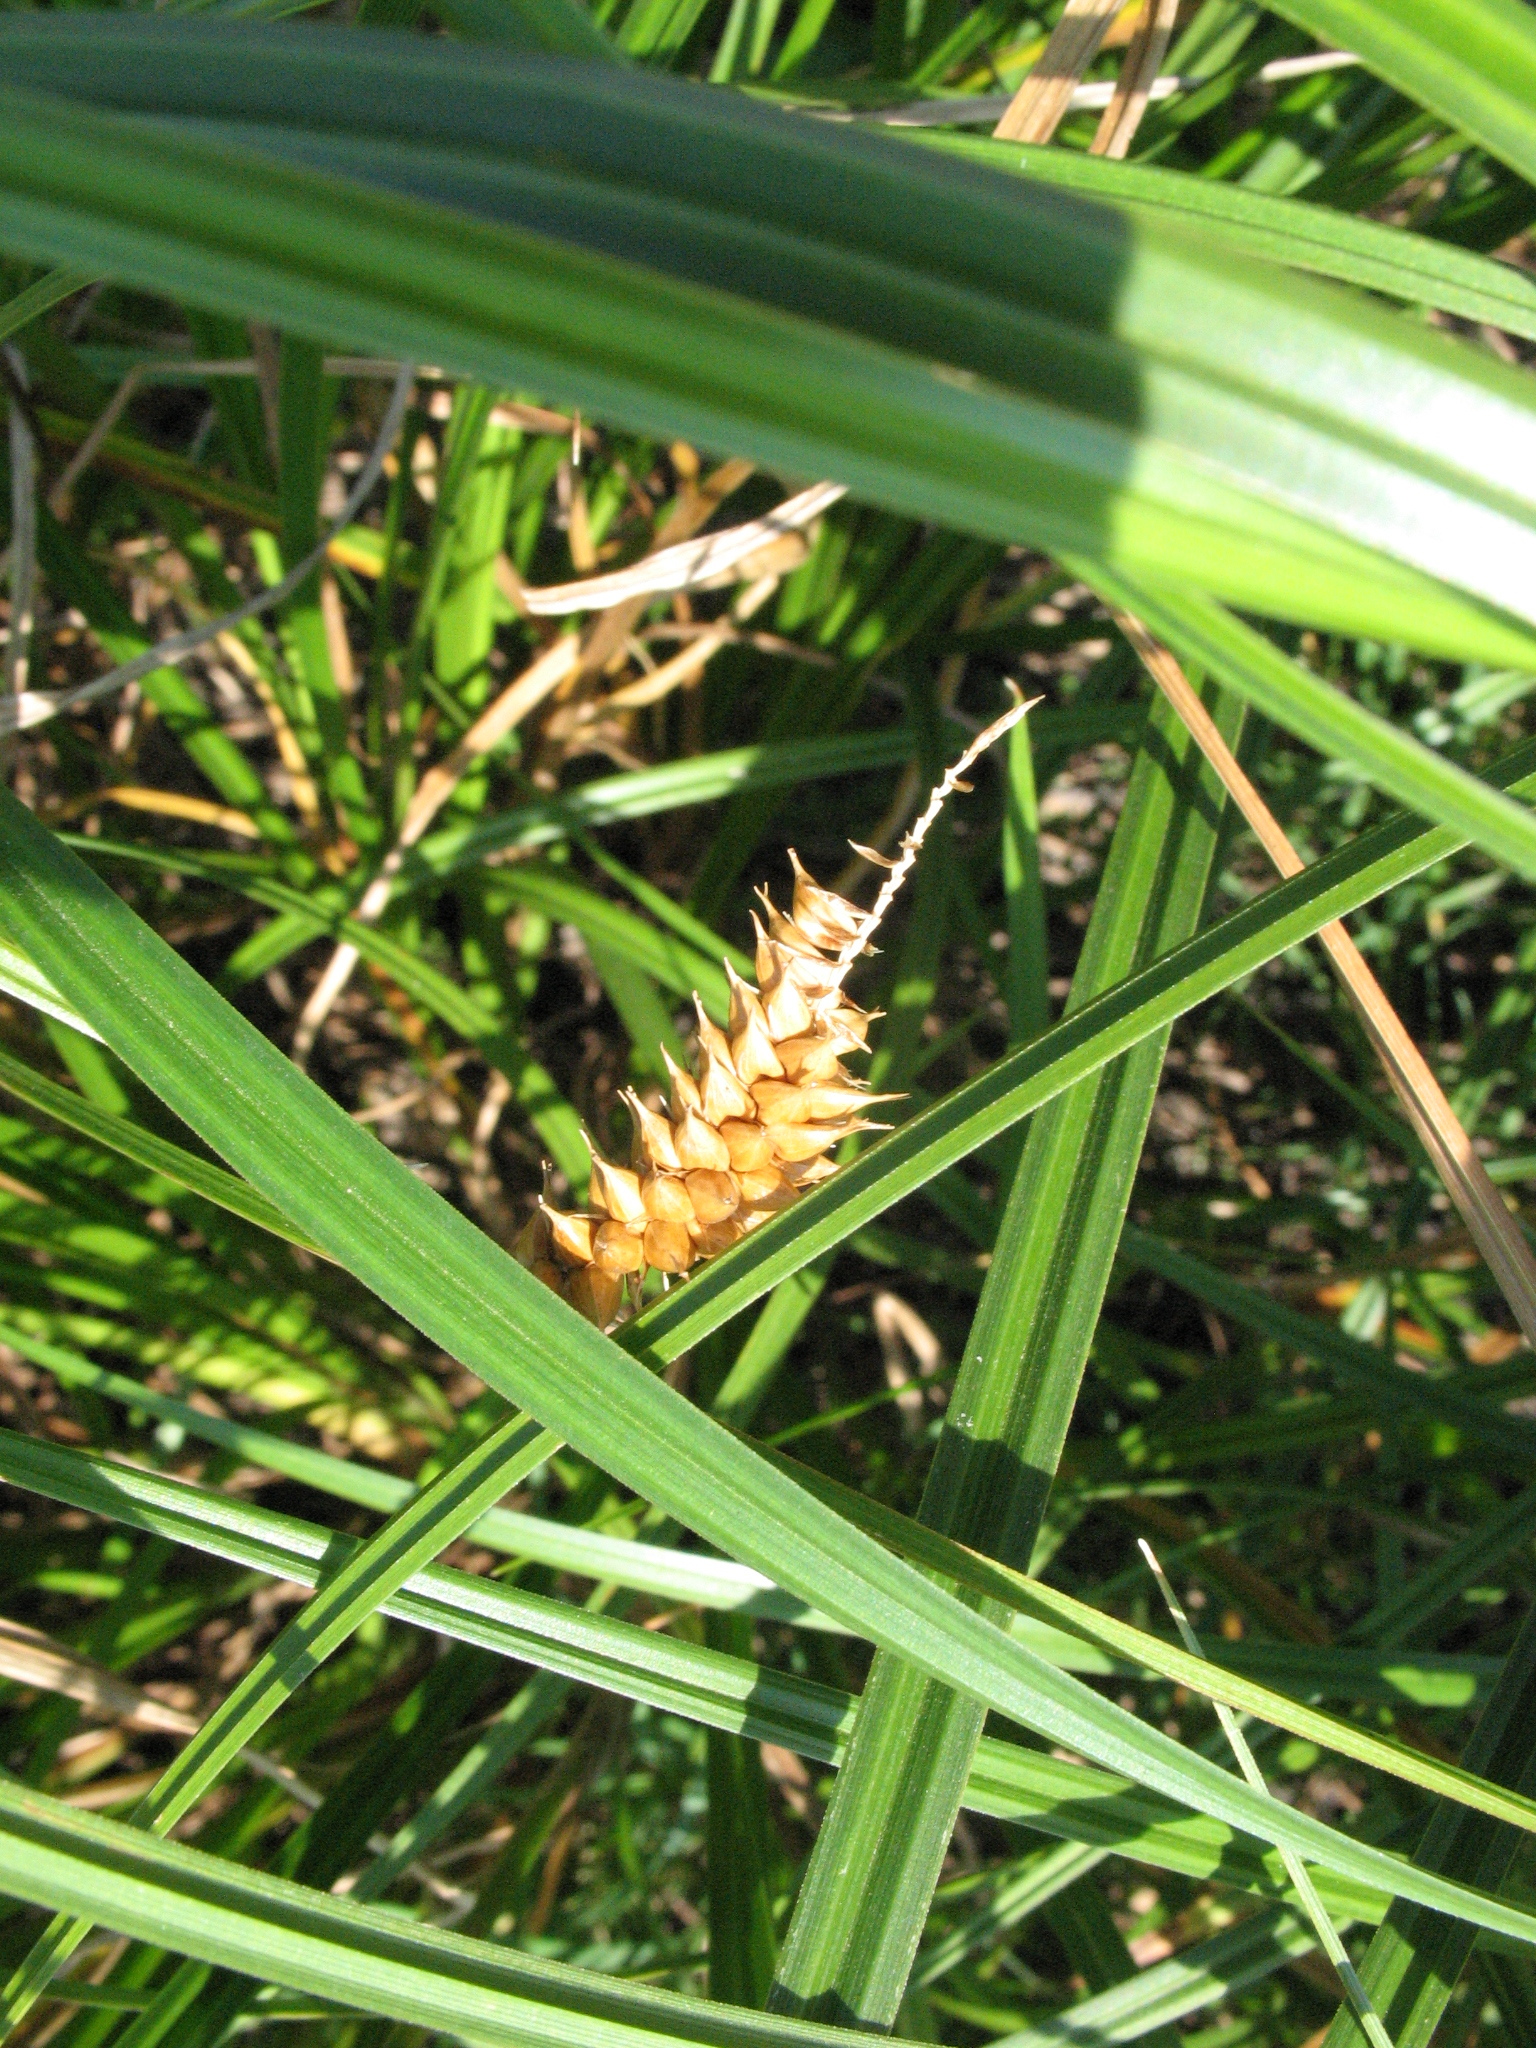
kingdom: Plantae
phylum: Tracheophyta
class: Liliopsida
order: Poales
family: Cyperaceae
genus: Carex
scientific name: Carex vesicaria
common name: Bladder-sedge
